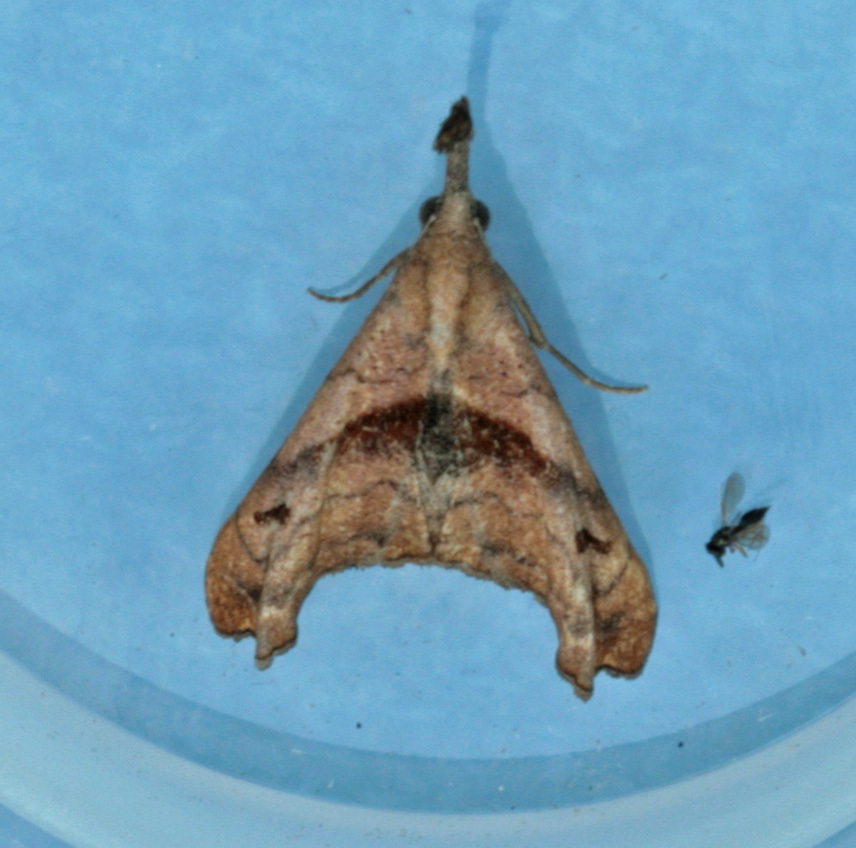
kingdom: Animalia
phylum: Arthropoda
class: Insecta
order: Lepidoptera
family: Erebidae
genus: Palthis
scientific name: Palthis angulalis
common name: Dark-spotted palthis moth
